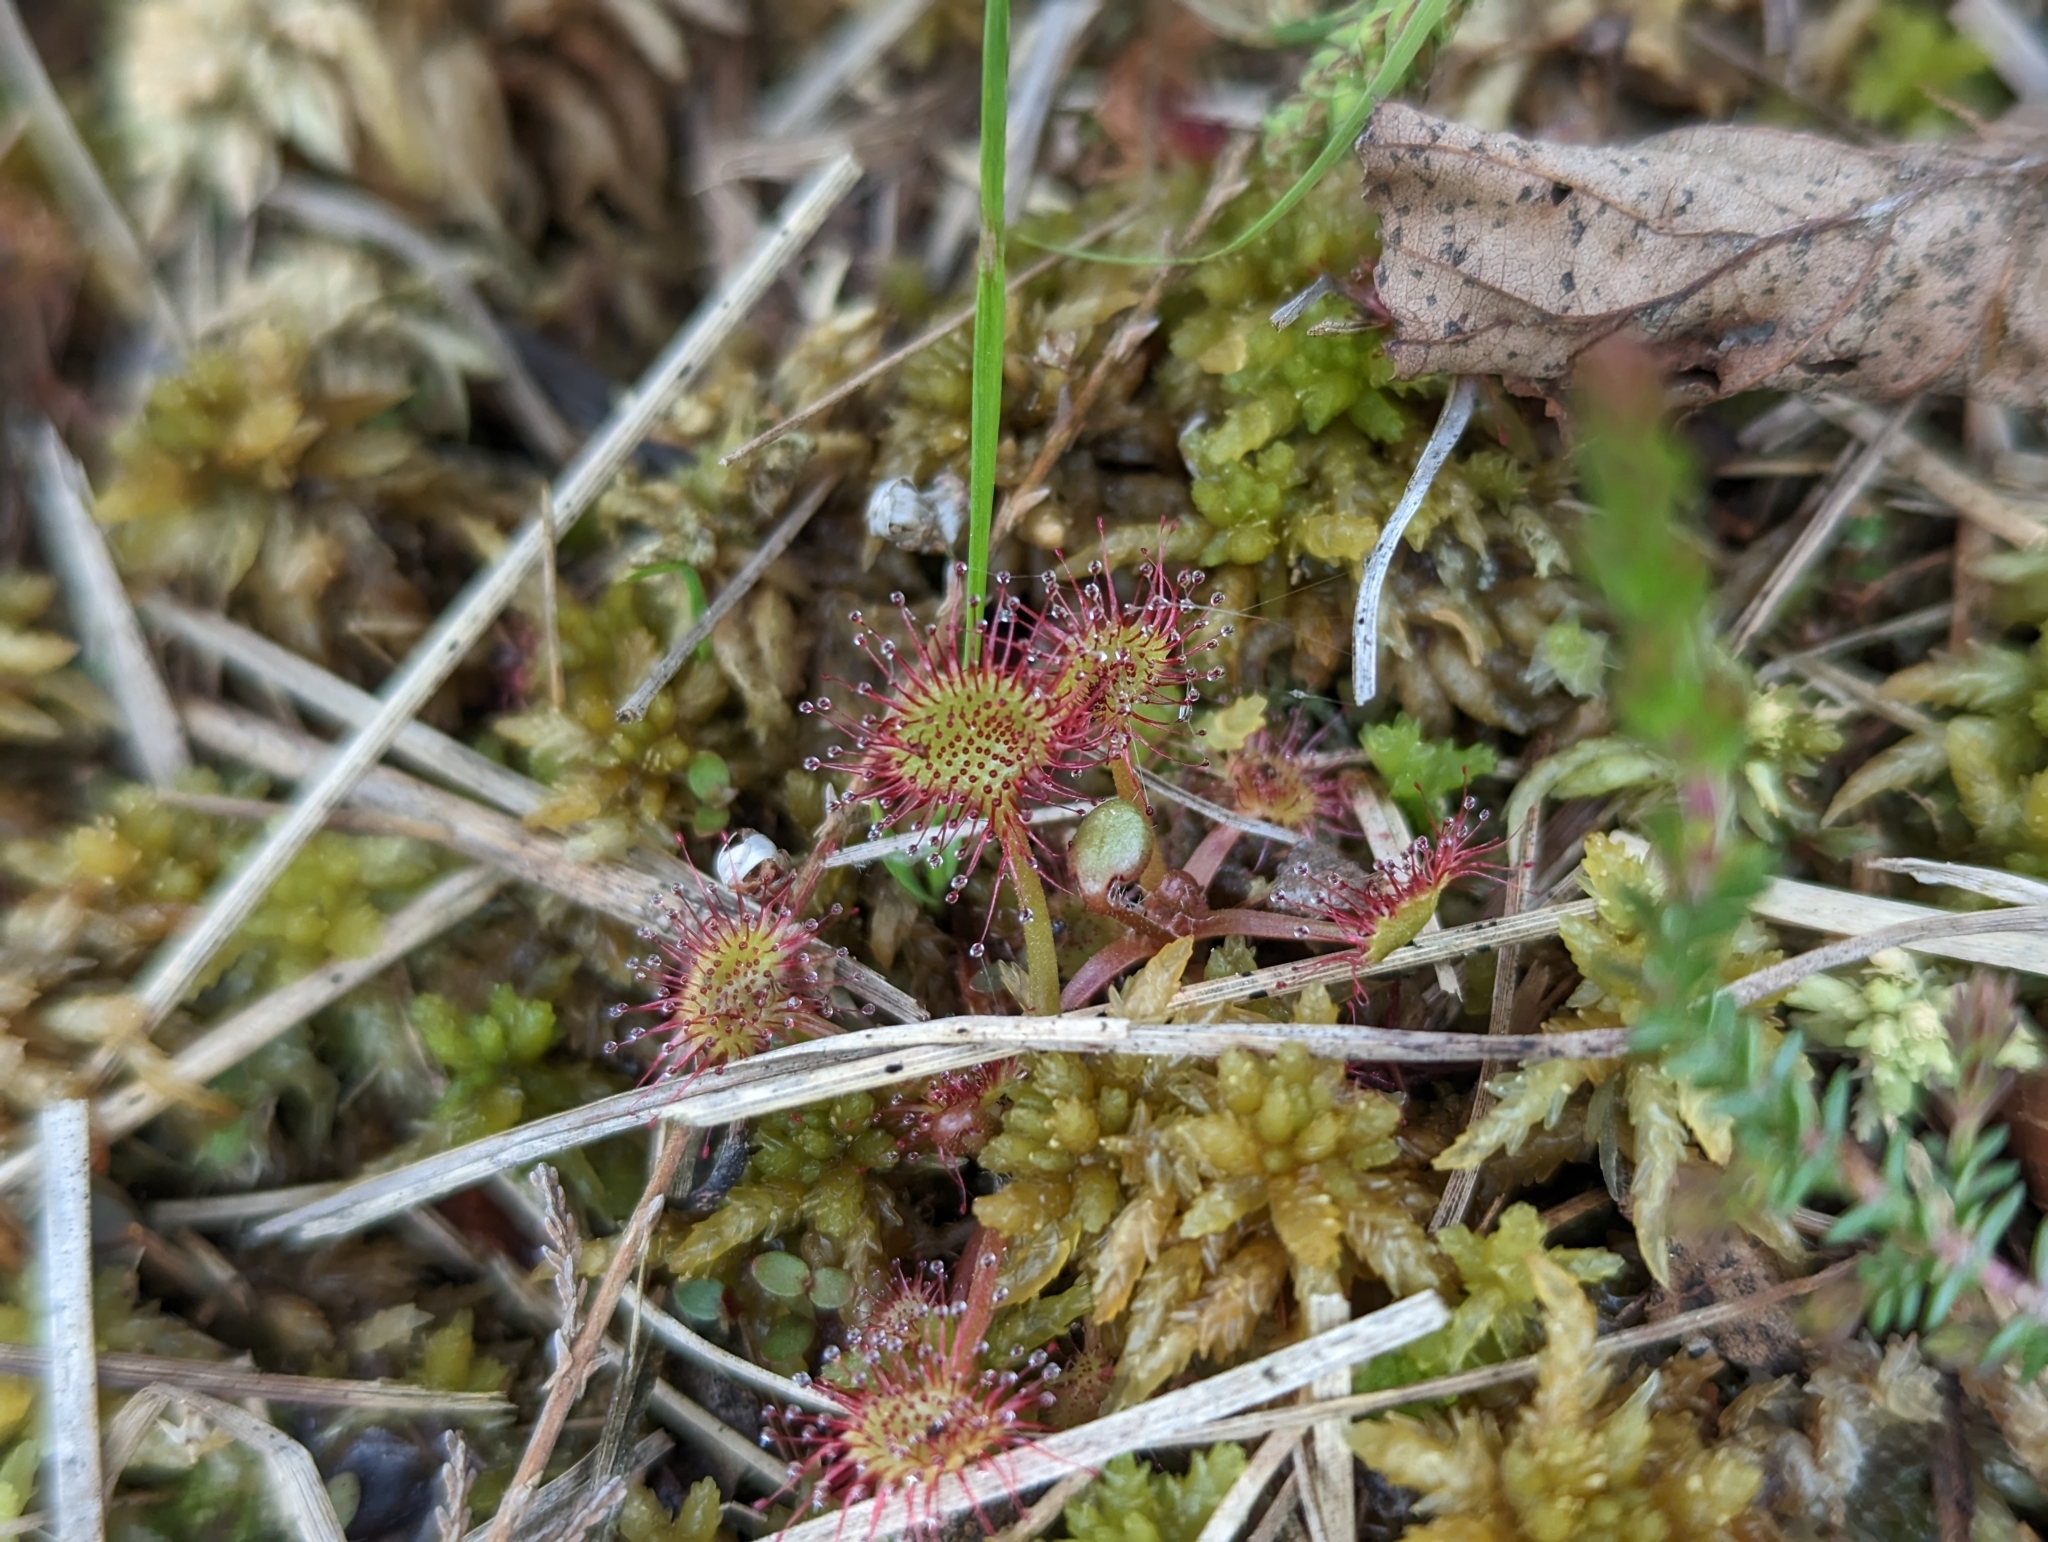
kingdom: Plantae
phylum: Tracheophyta
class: Magnoliopsida
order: Caryophyllales
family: Droseraceae
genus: Drosera
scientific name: Drosera rotundifolia
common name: Round-leaved sundew
